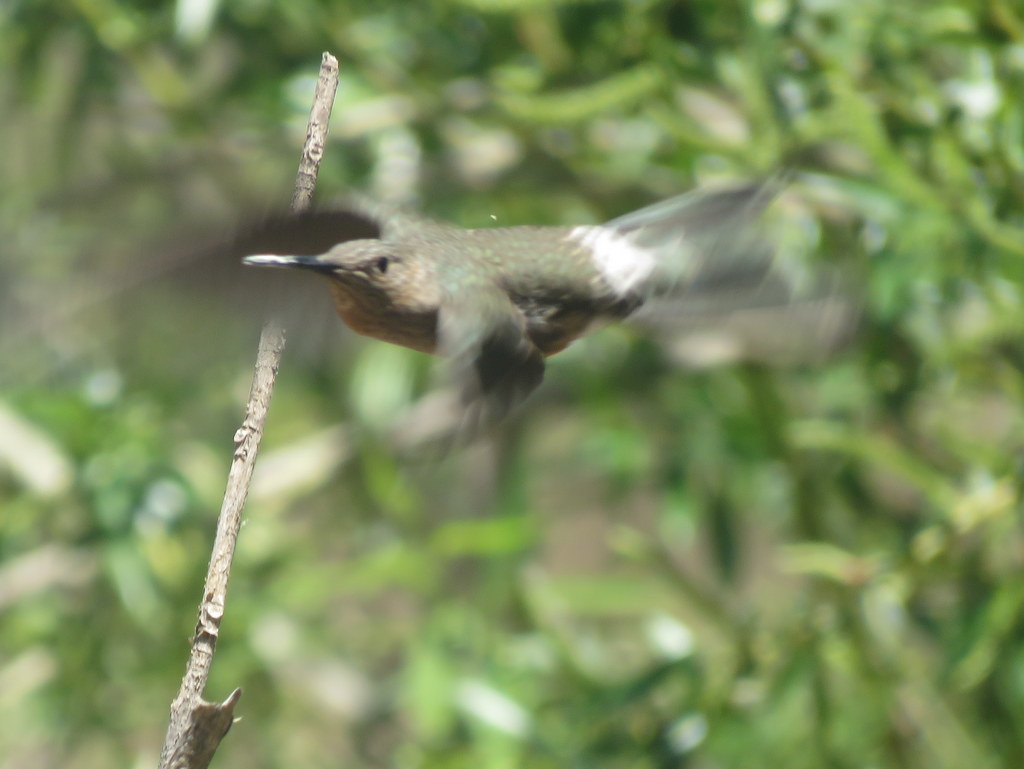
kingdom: Animalia
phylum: Chordata
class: Aves
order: Apodiformes
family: Trochilidae
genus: Patagona
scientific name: Patagona gigas
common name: Giant hummingbird
